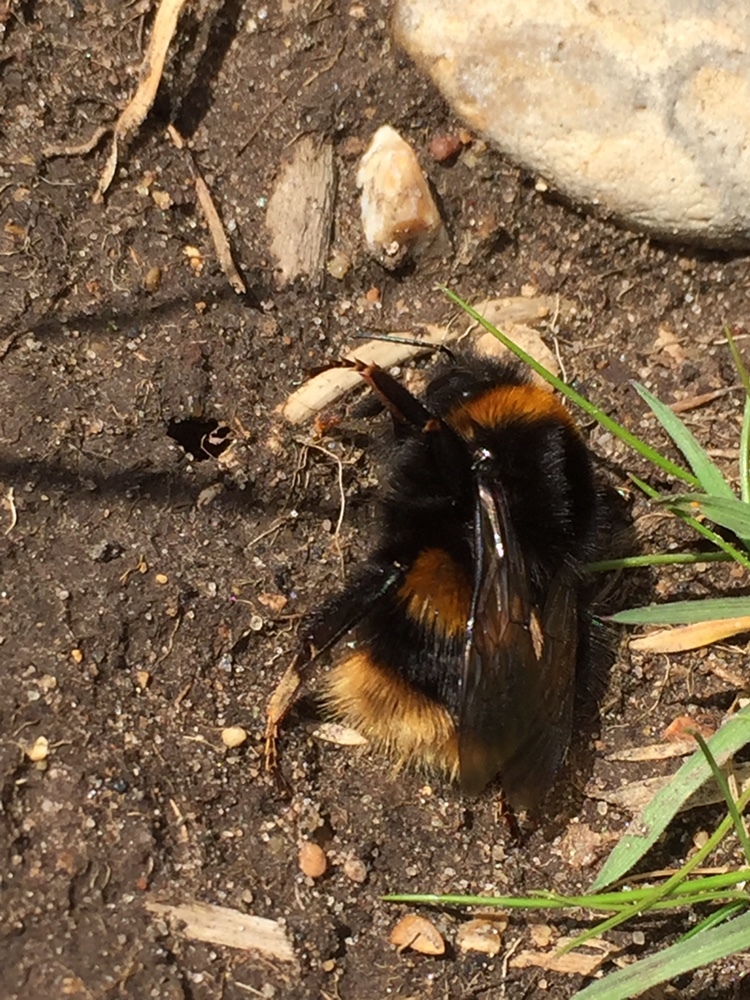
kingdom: Animalia
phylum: Arthropoda
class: Insecta
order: Hymenoptera
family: Apidae
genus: Bombus
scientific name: Bombus terrestris
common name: Buff-tailed bumblebee
